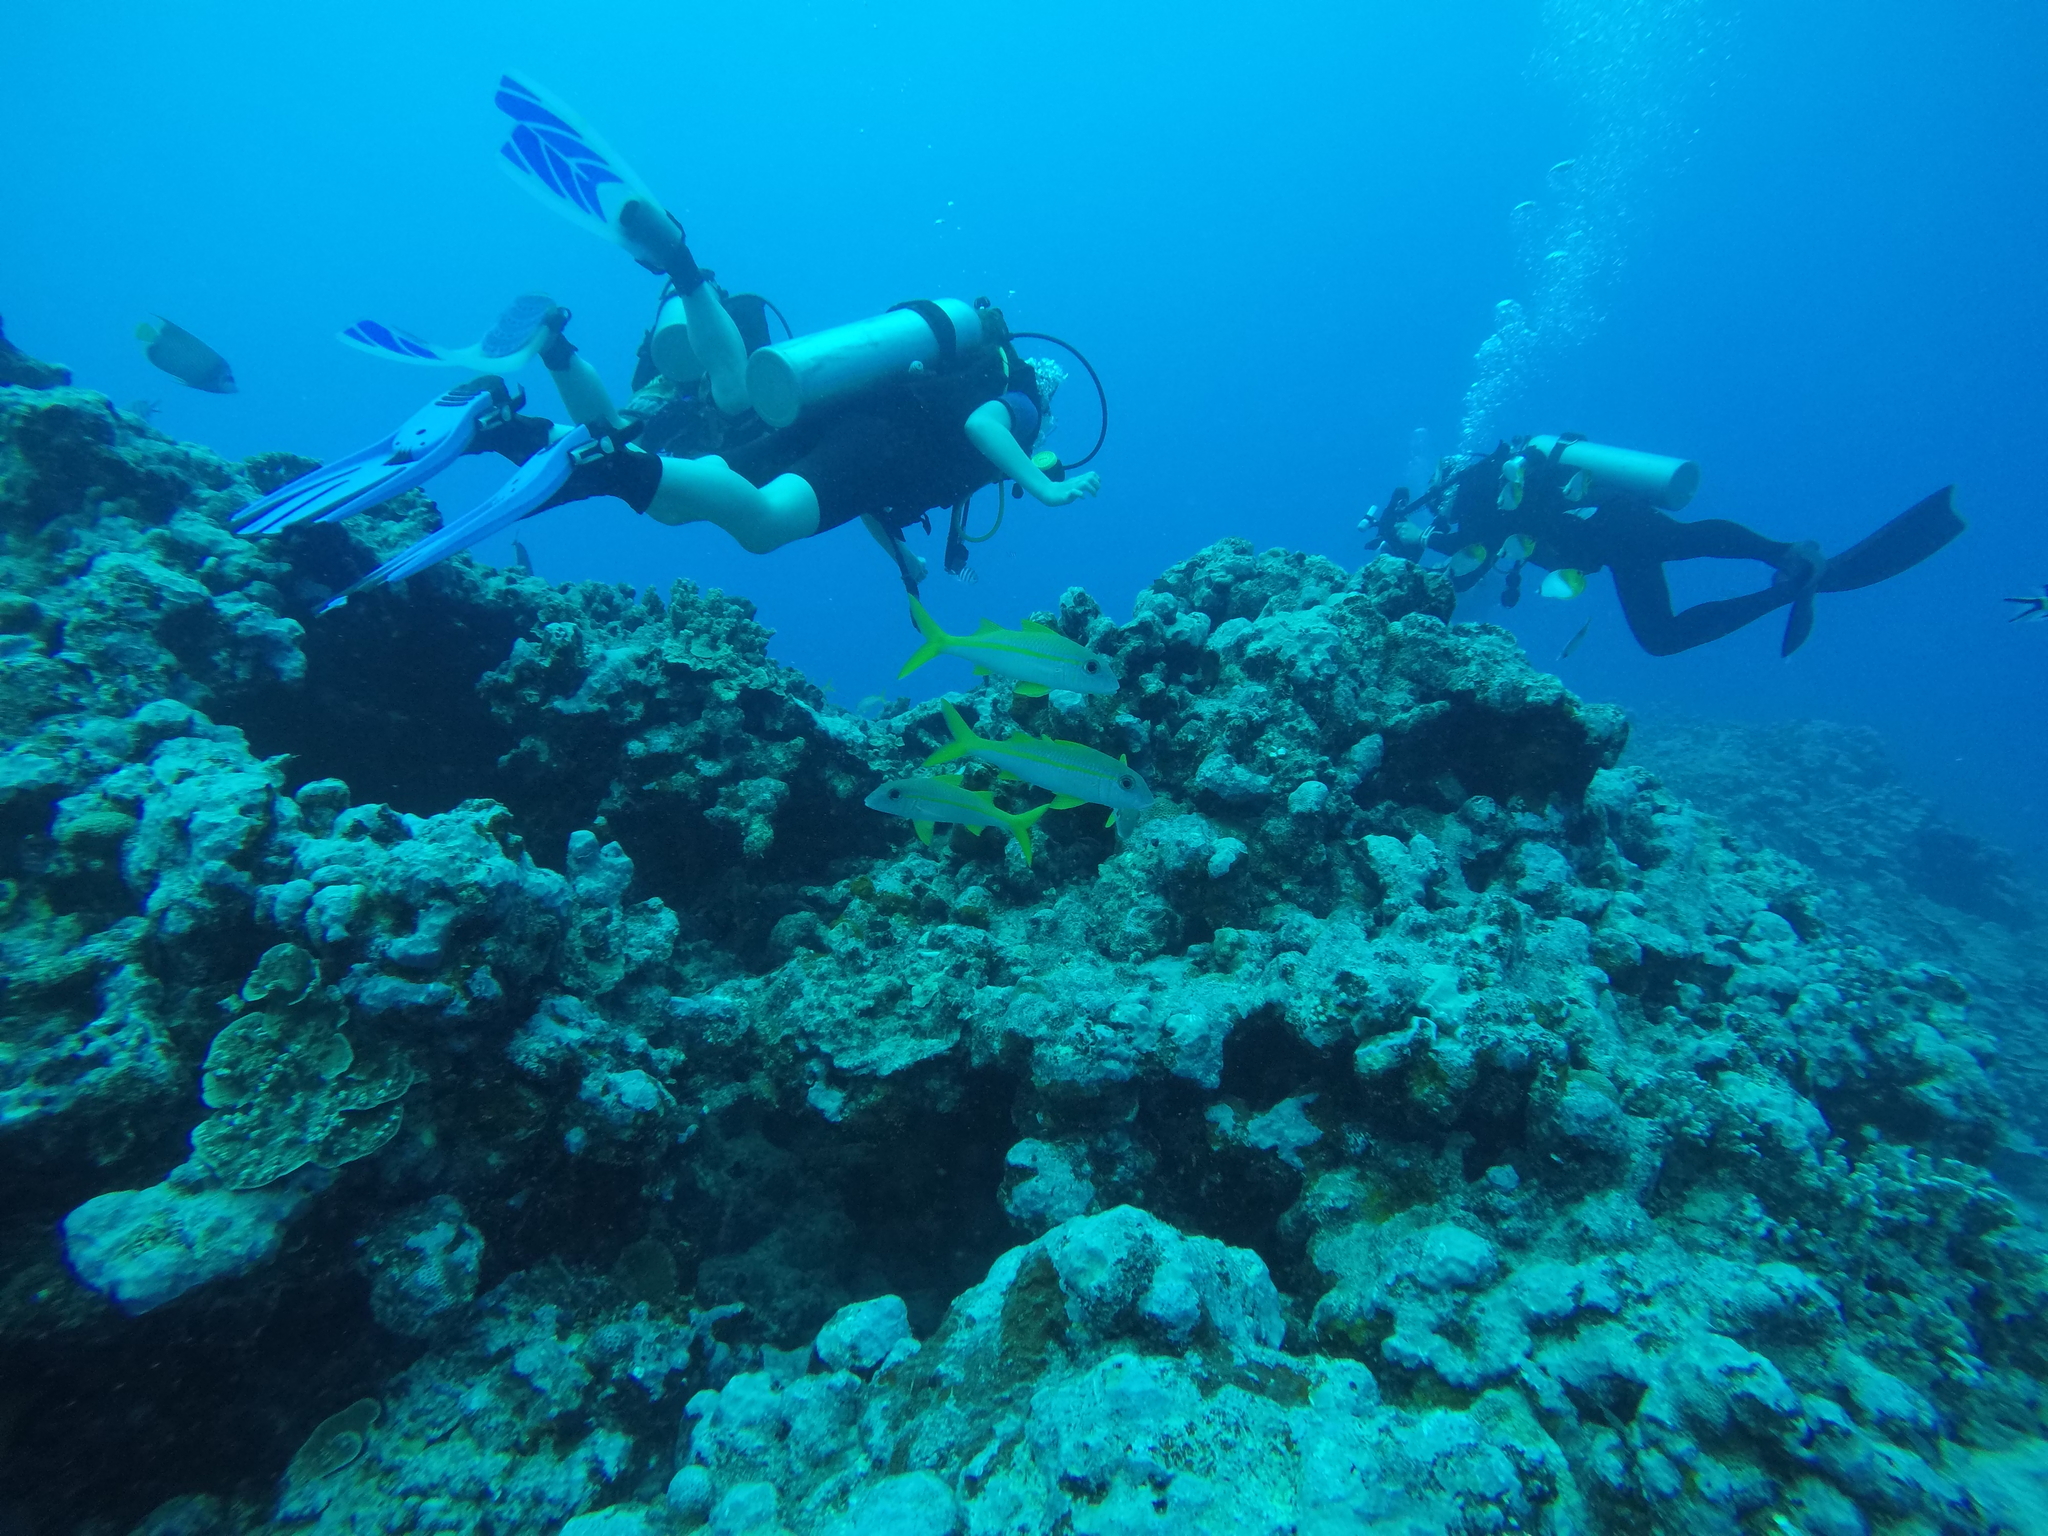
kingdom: Animalia
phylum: Chordata
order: Perciformes
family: Mullidae
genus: Mulloidichthys
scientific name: Mulloidichthys vanicolensis
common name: Yellowfin goatfish
